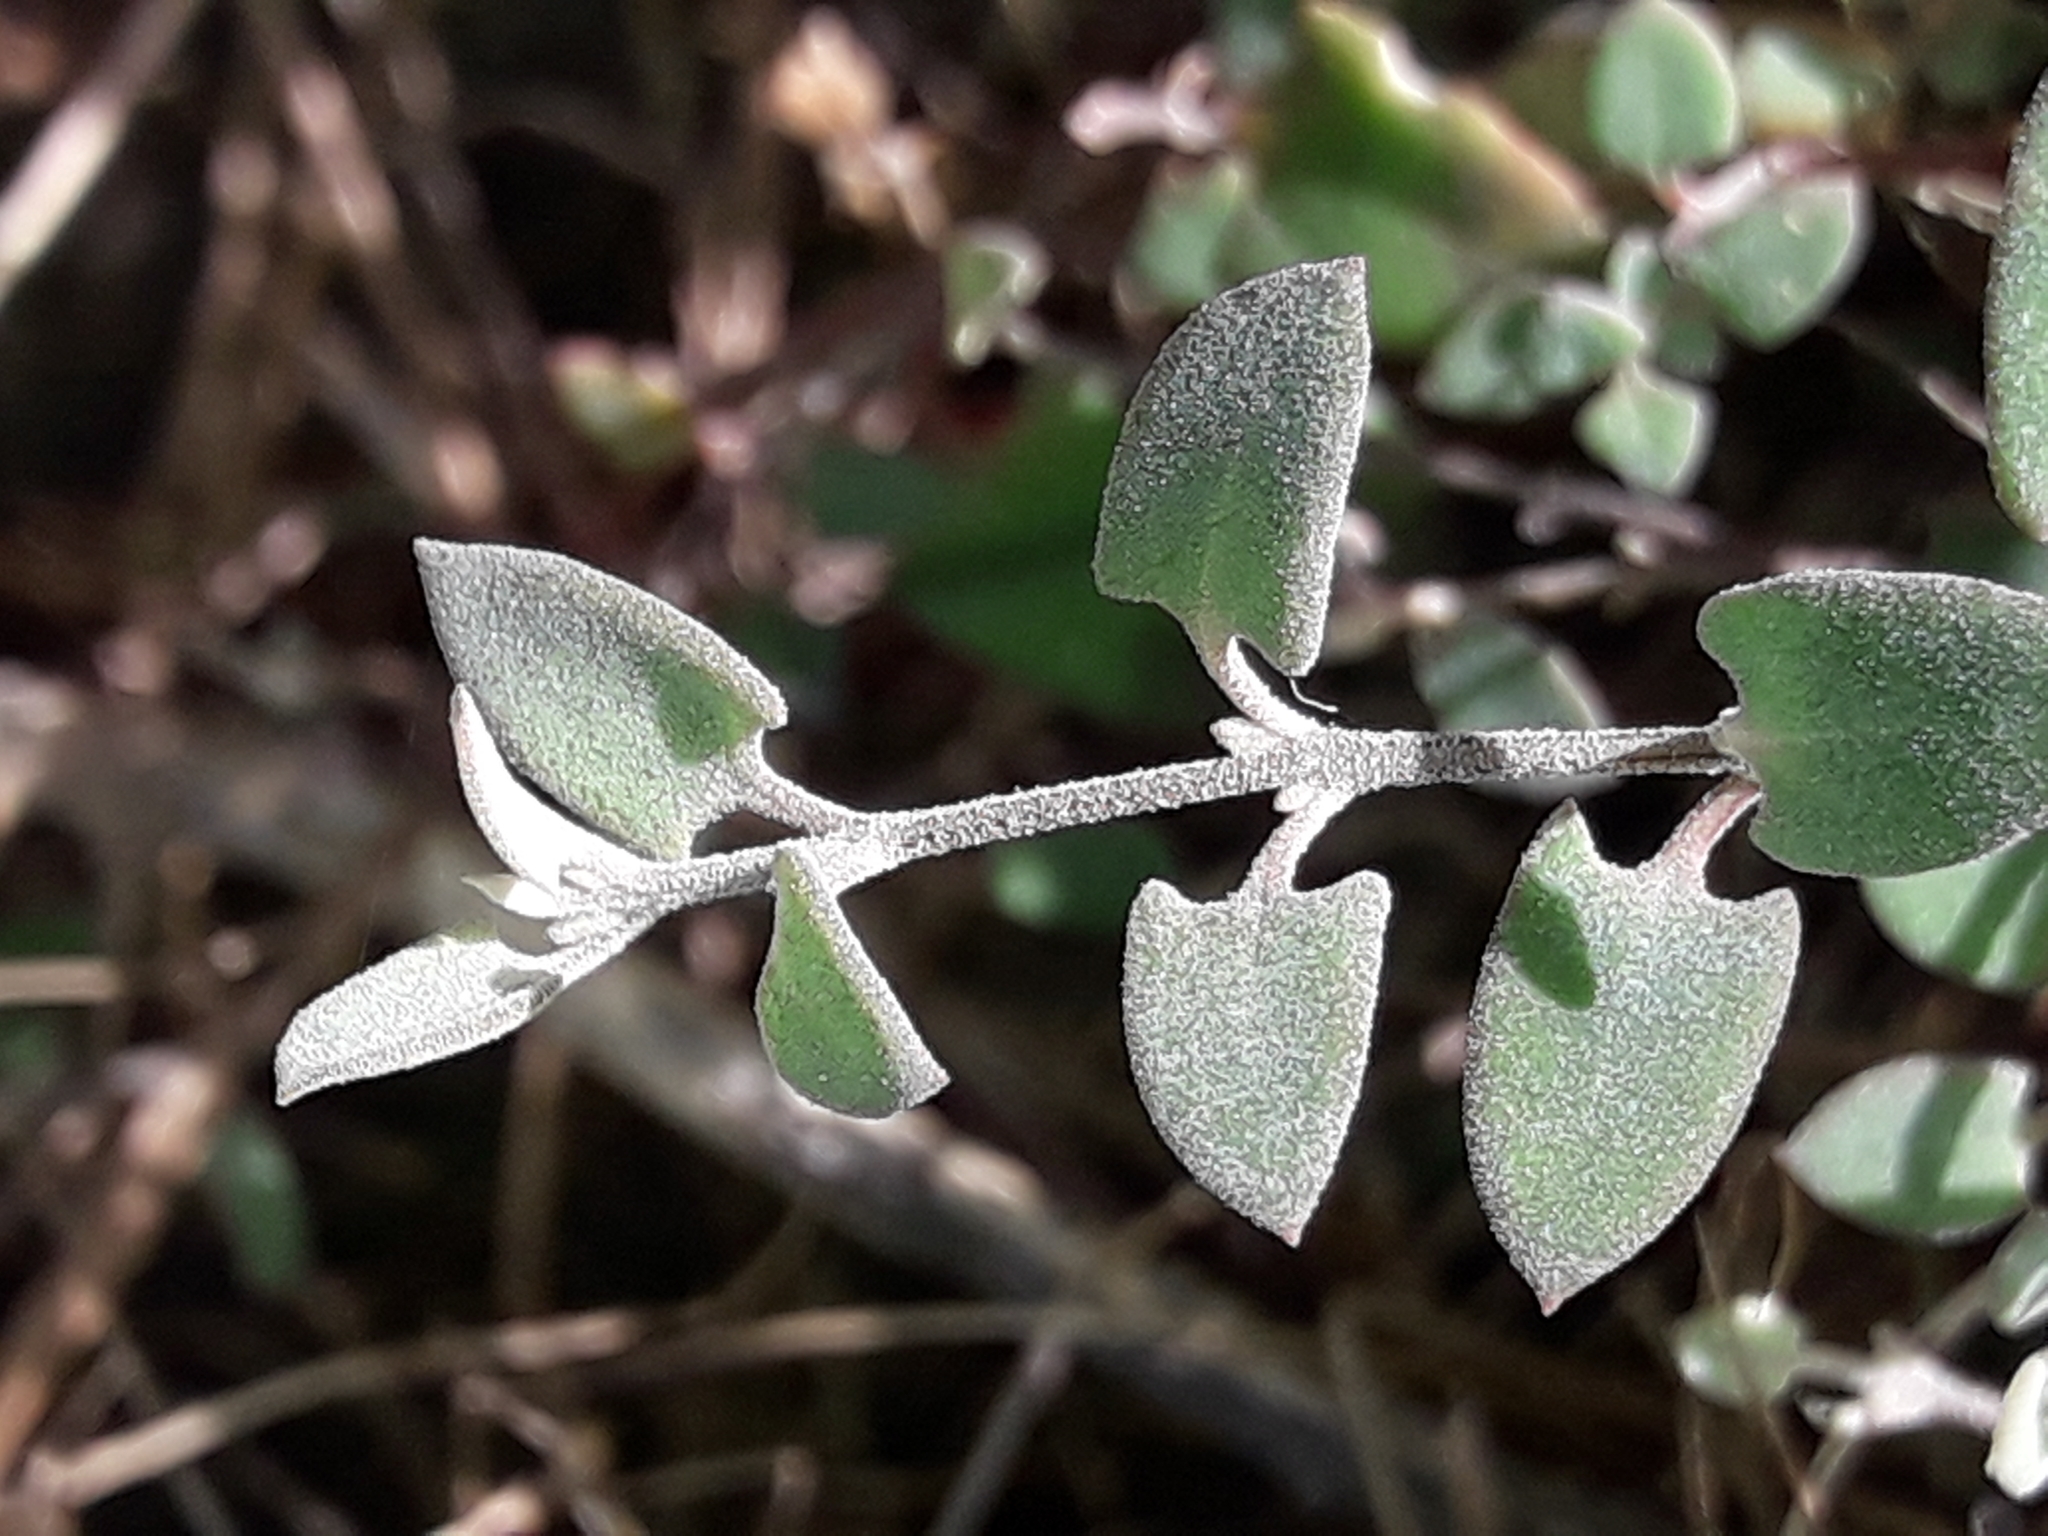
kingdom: Plantae
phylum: Tracheophyta
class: Magnoliopsida
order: Caryophyllales
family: Amaranthaceae
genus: Chenopodium
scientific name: Chenopodium triandrum
